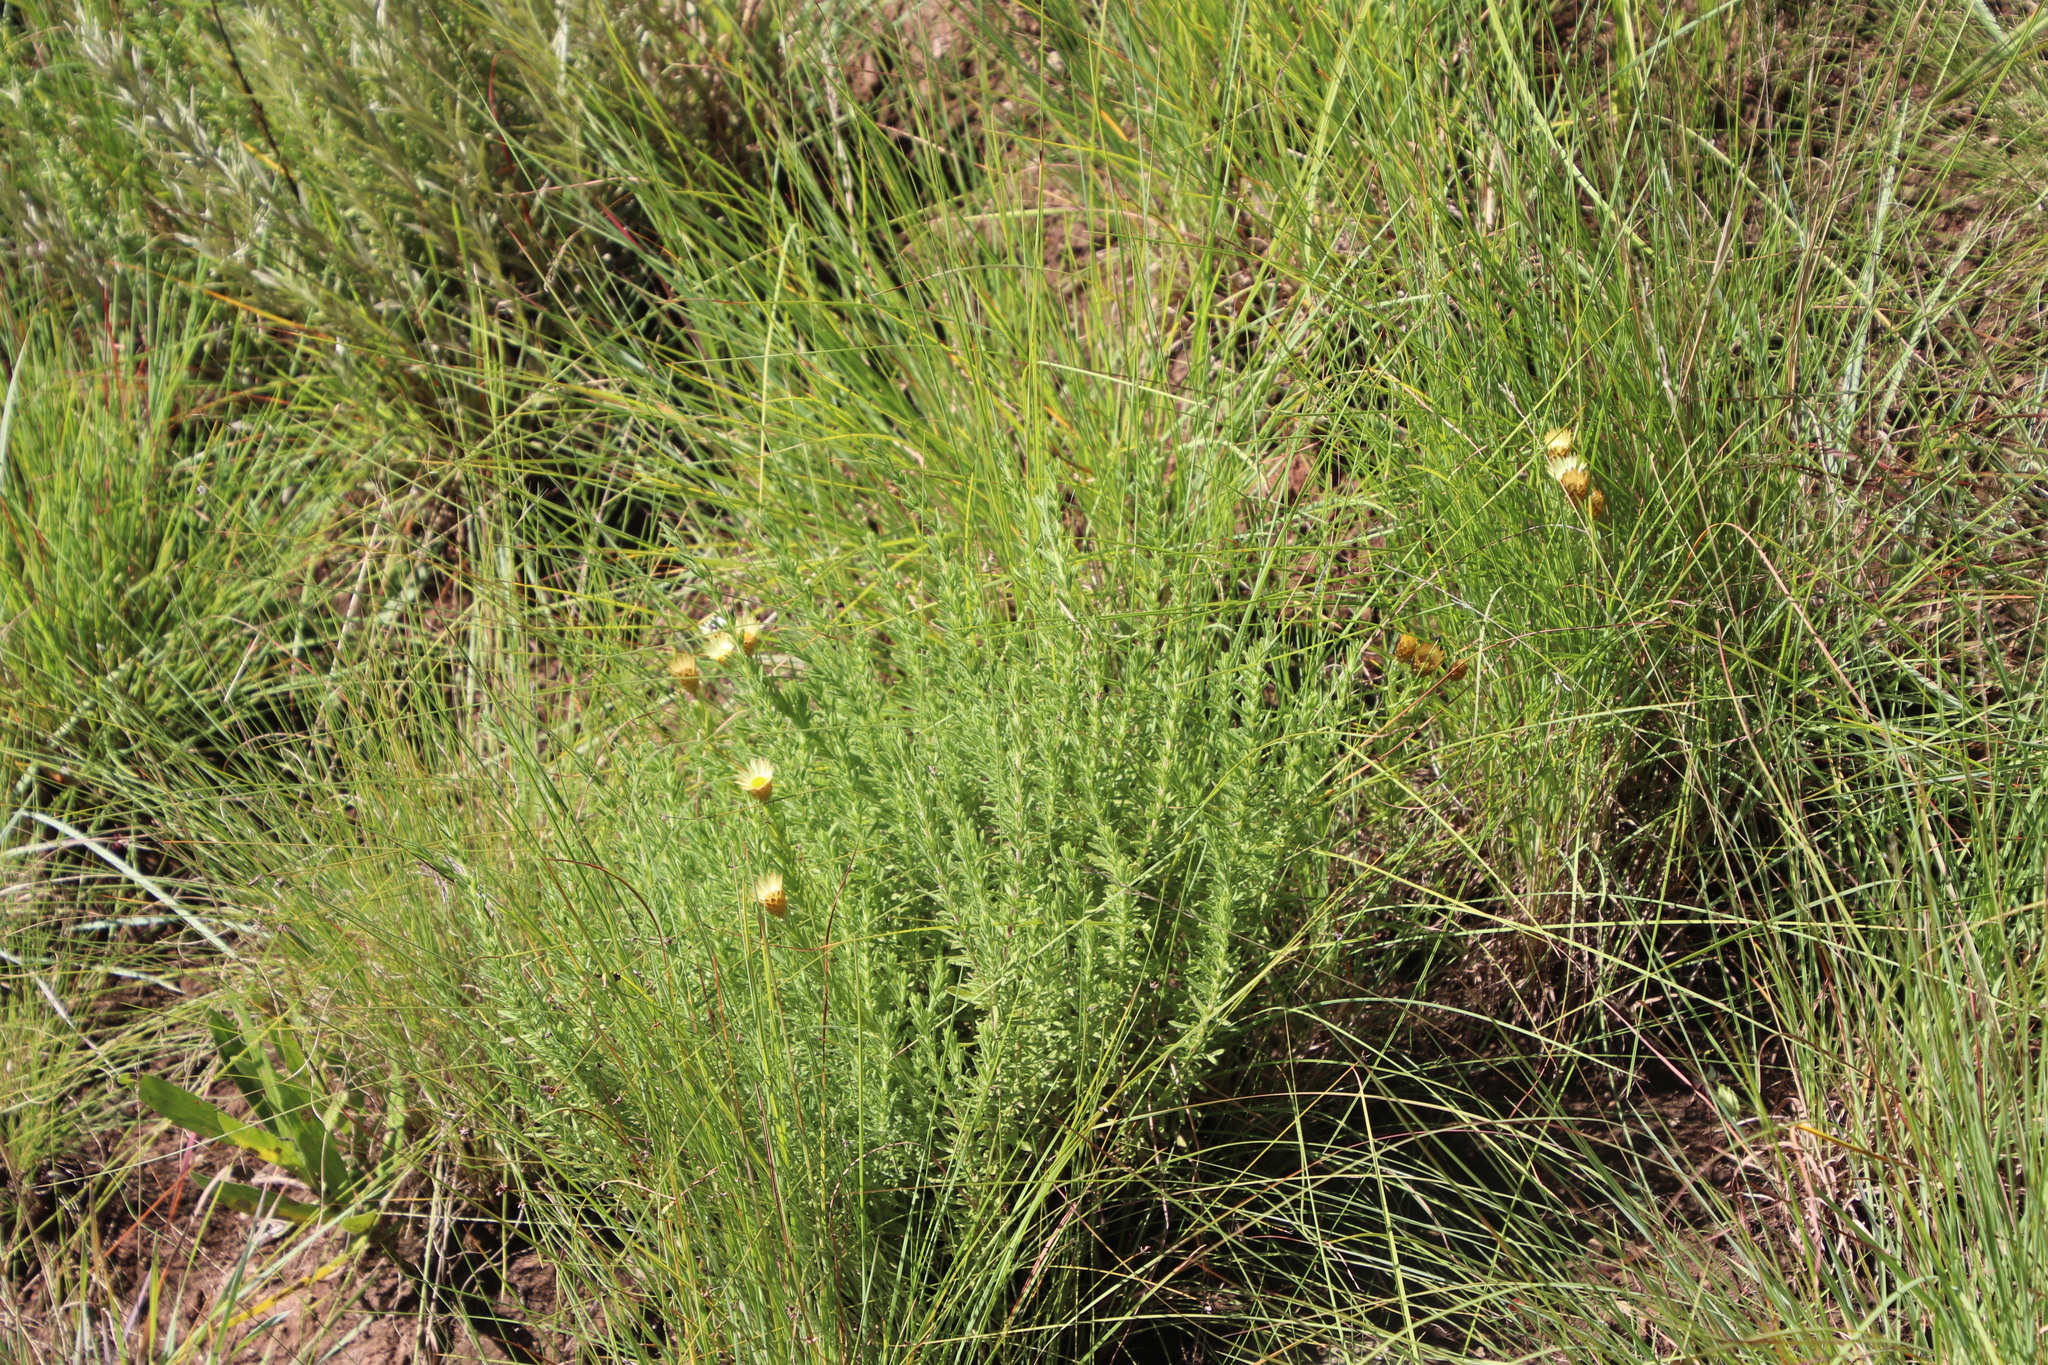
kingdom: Plantae
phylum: Tracheophyta
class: Magnoliopsida
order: Asterales
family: Asteraceae
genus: Helichrysum
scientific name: Helichrysum herbaceum
